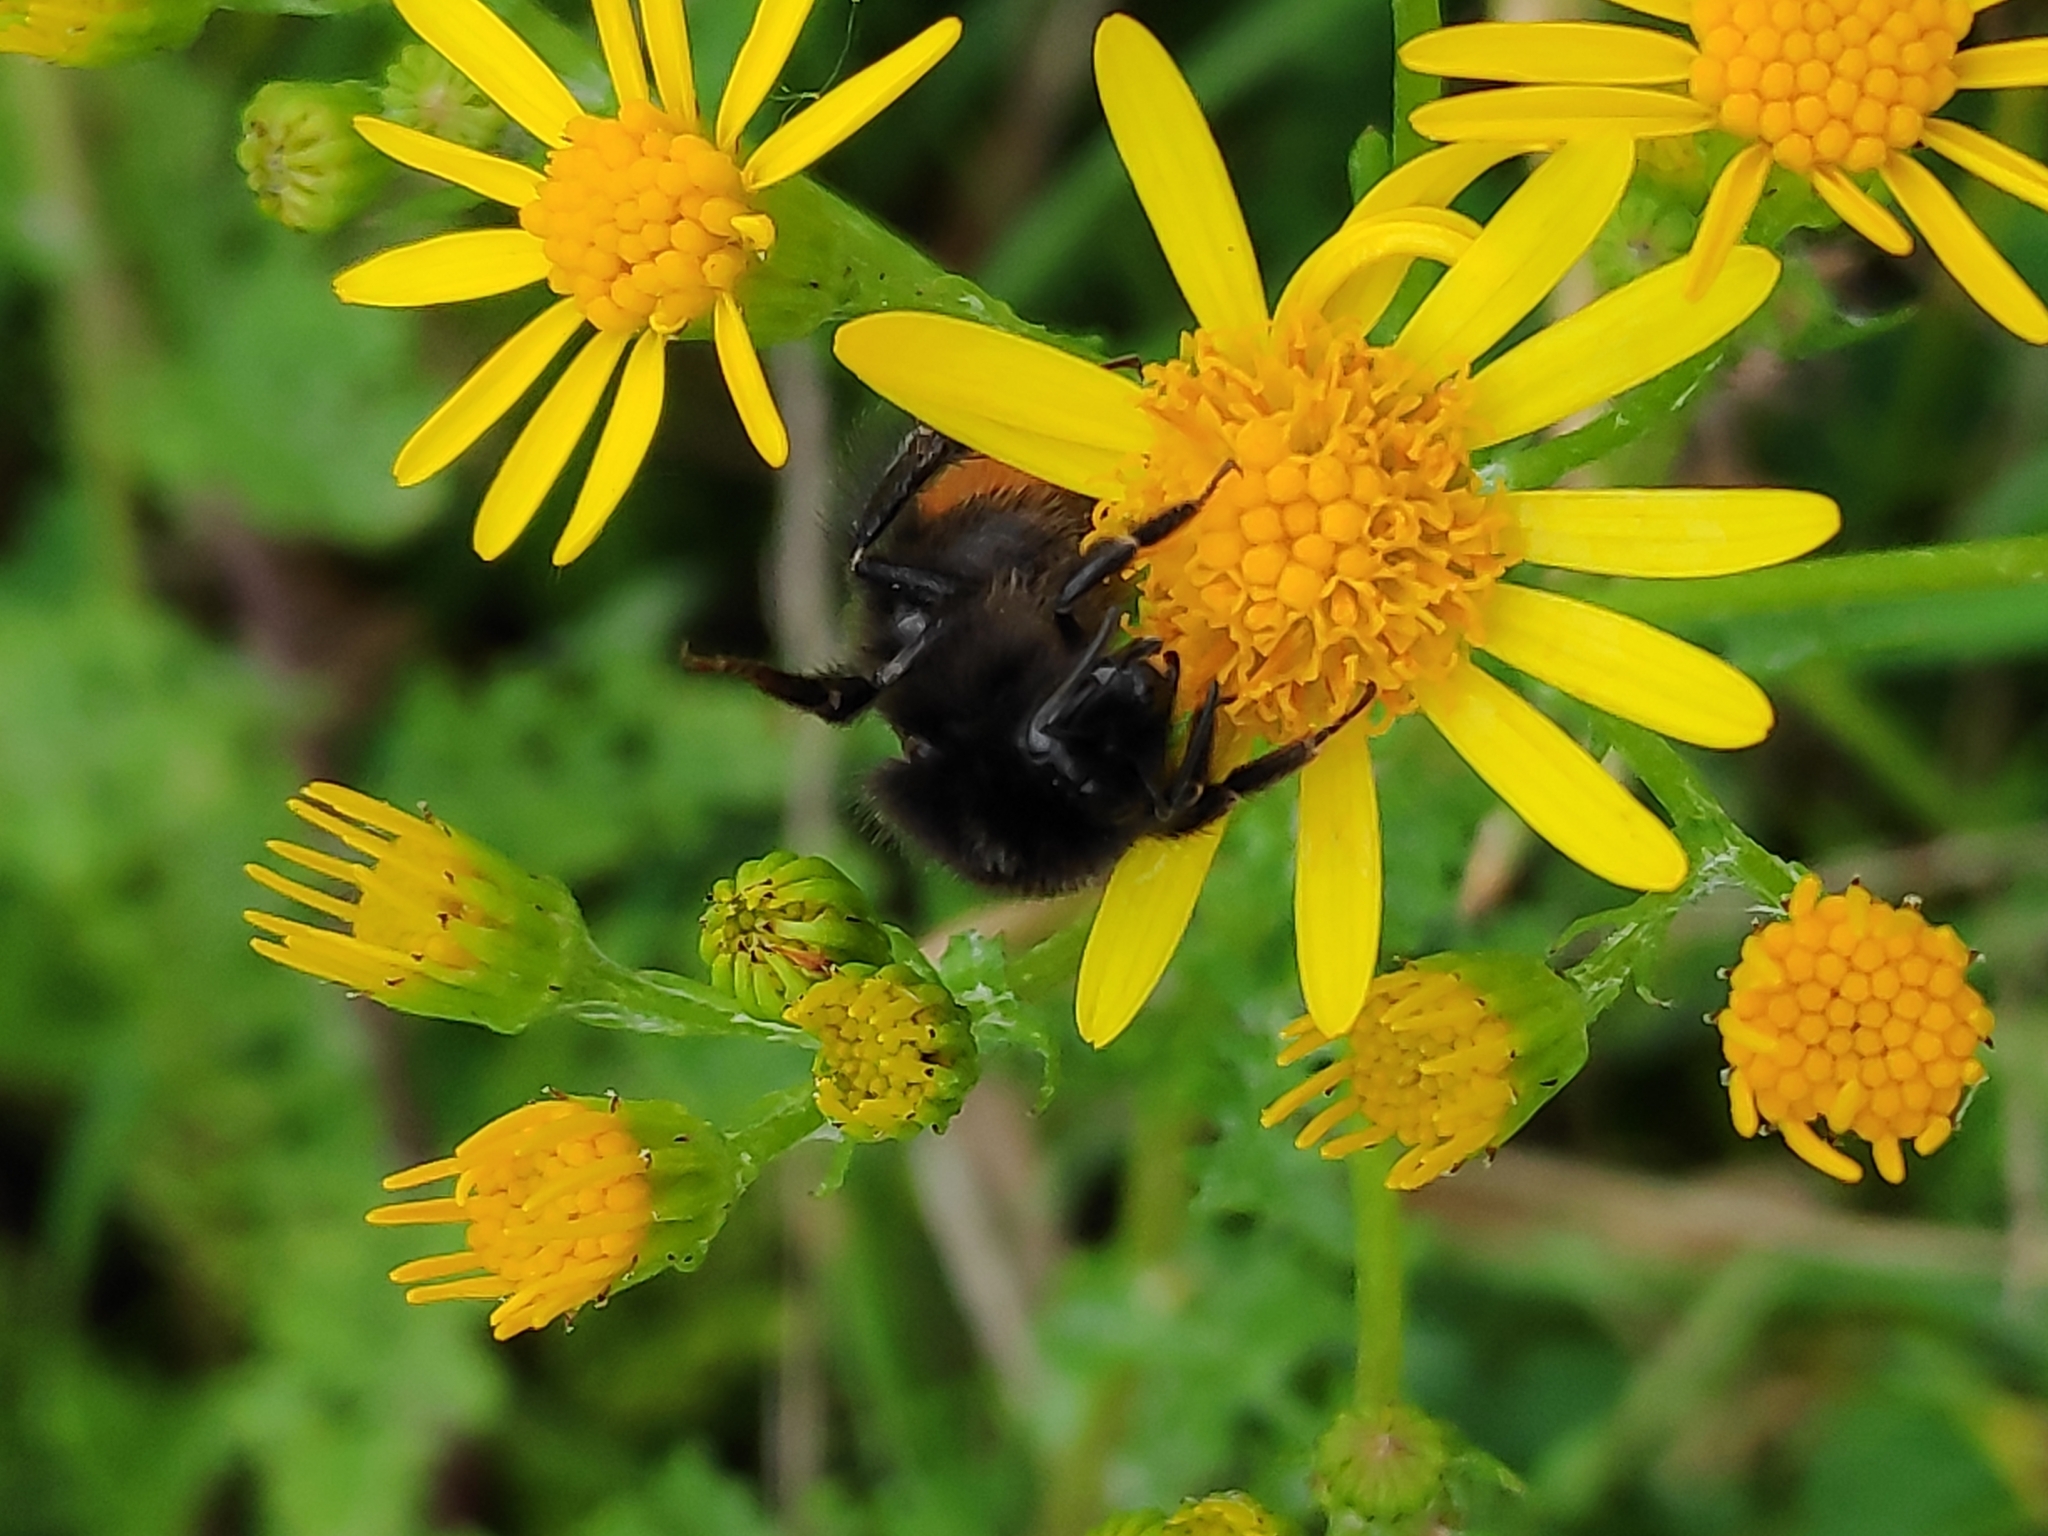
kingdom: Animalia
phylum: Arthropoda
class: Insecta
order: Hymenoptera
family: Apidae
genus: Bombus
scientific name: Bombus lapidarius
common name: Large red-tailed humble-bee
